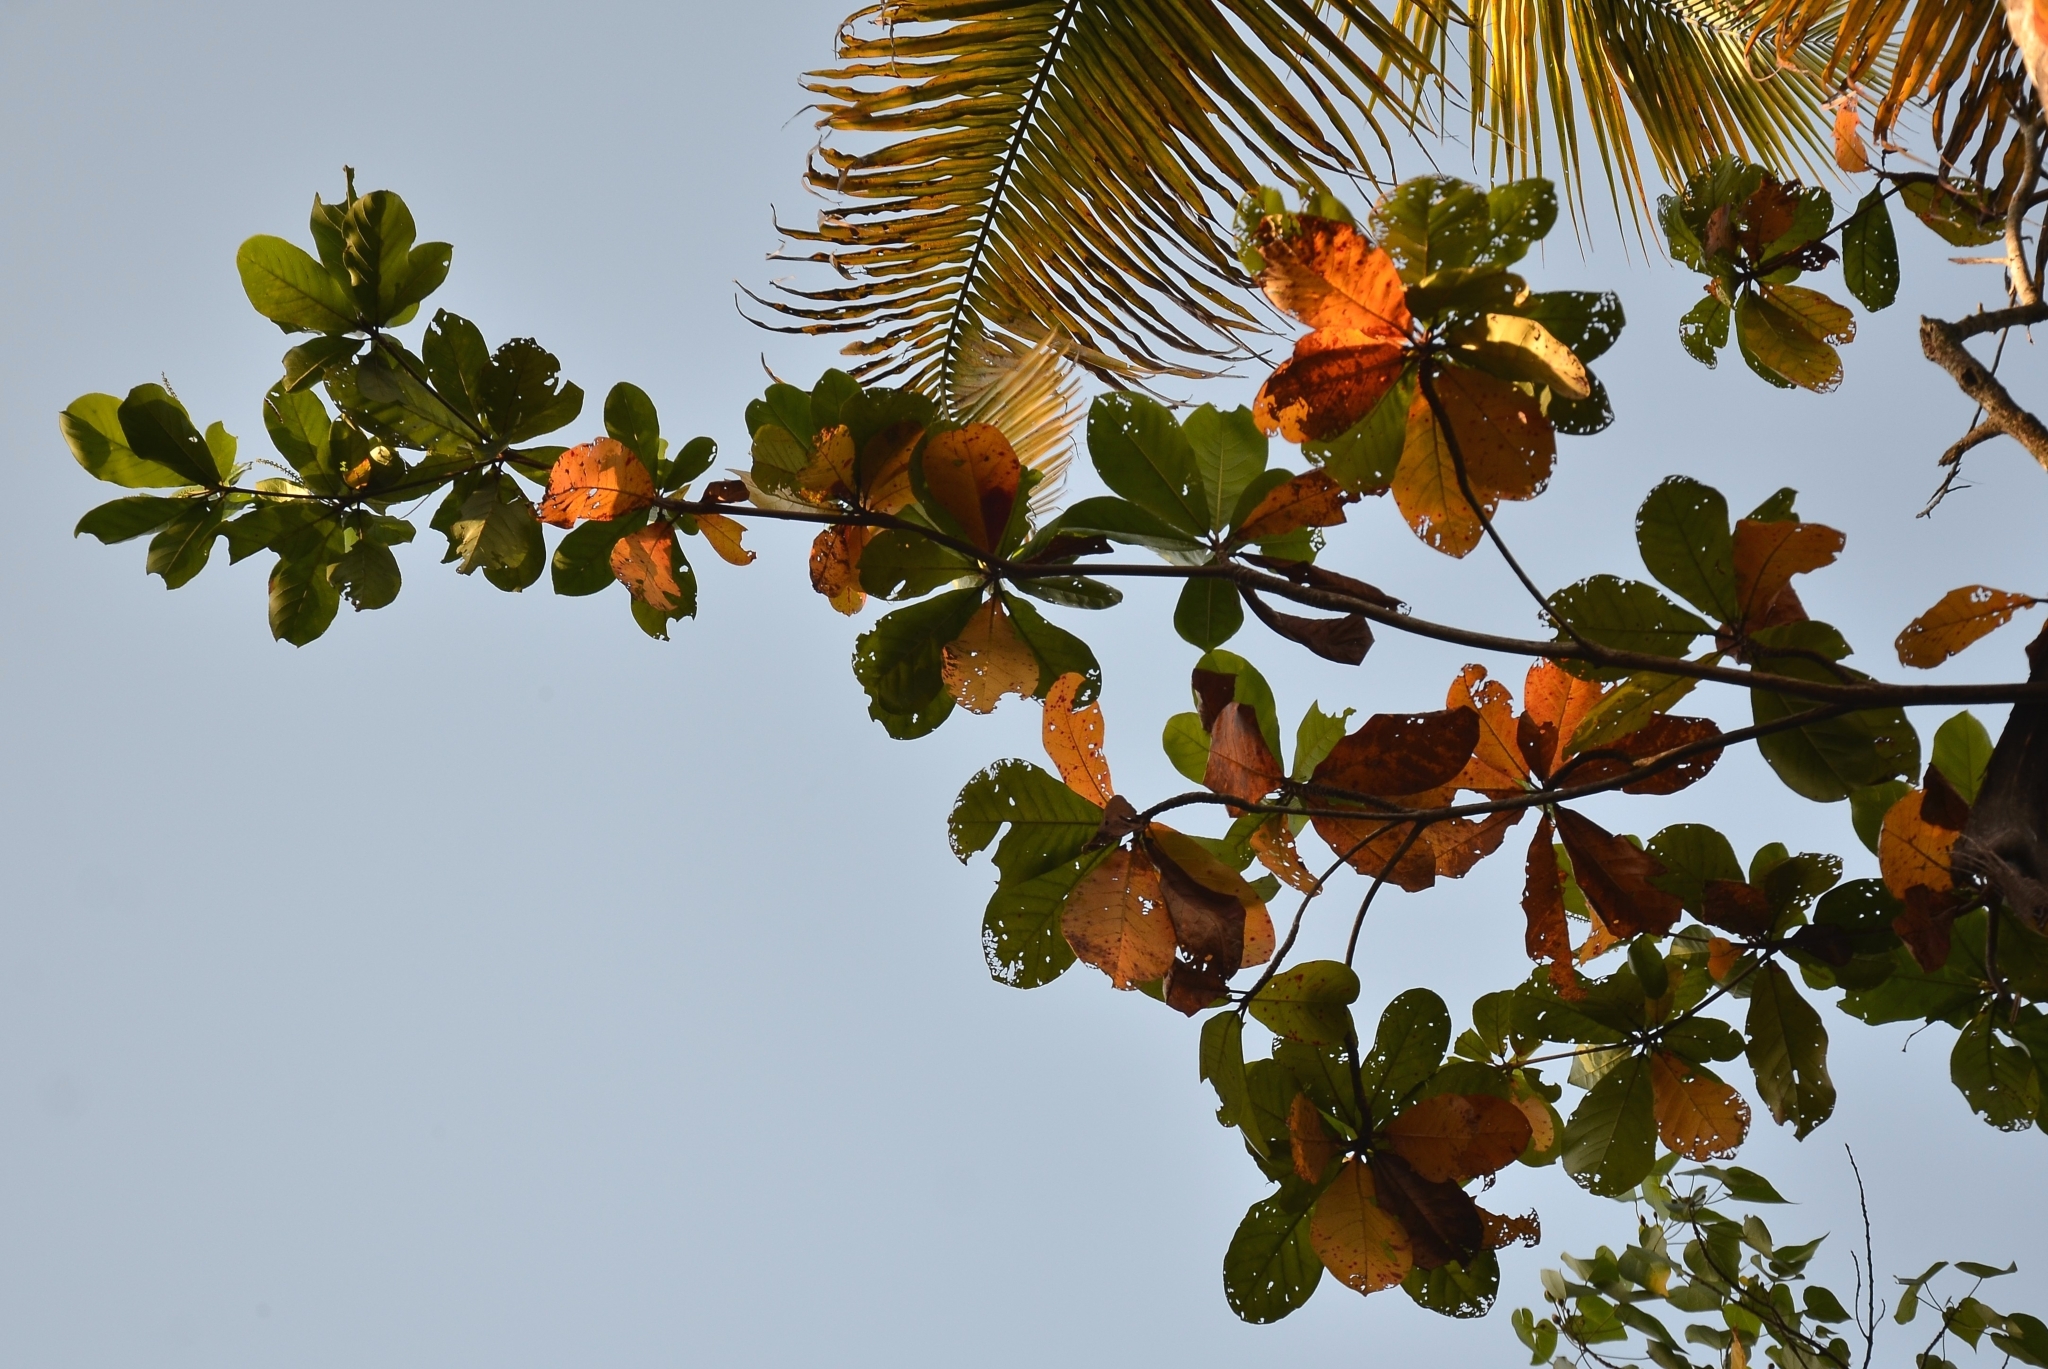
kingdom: Plantae
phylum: Tracheophyta
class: Magnoliopsida
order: Myrtales
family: Combretaceae
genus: Terminalia
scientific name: Terminalia catappa
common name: Tropical almond
